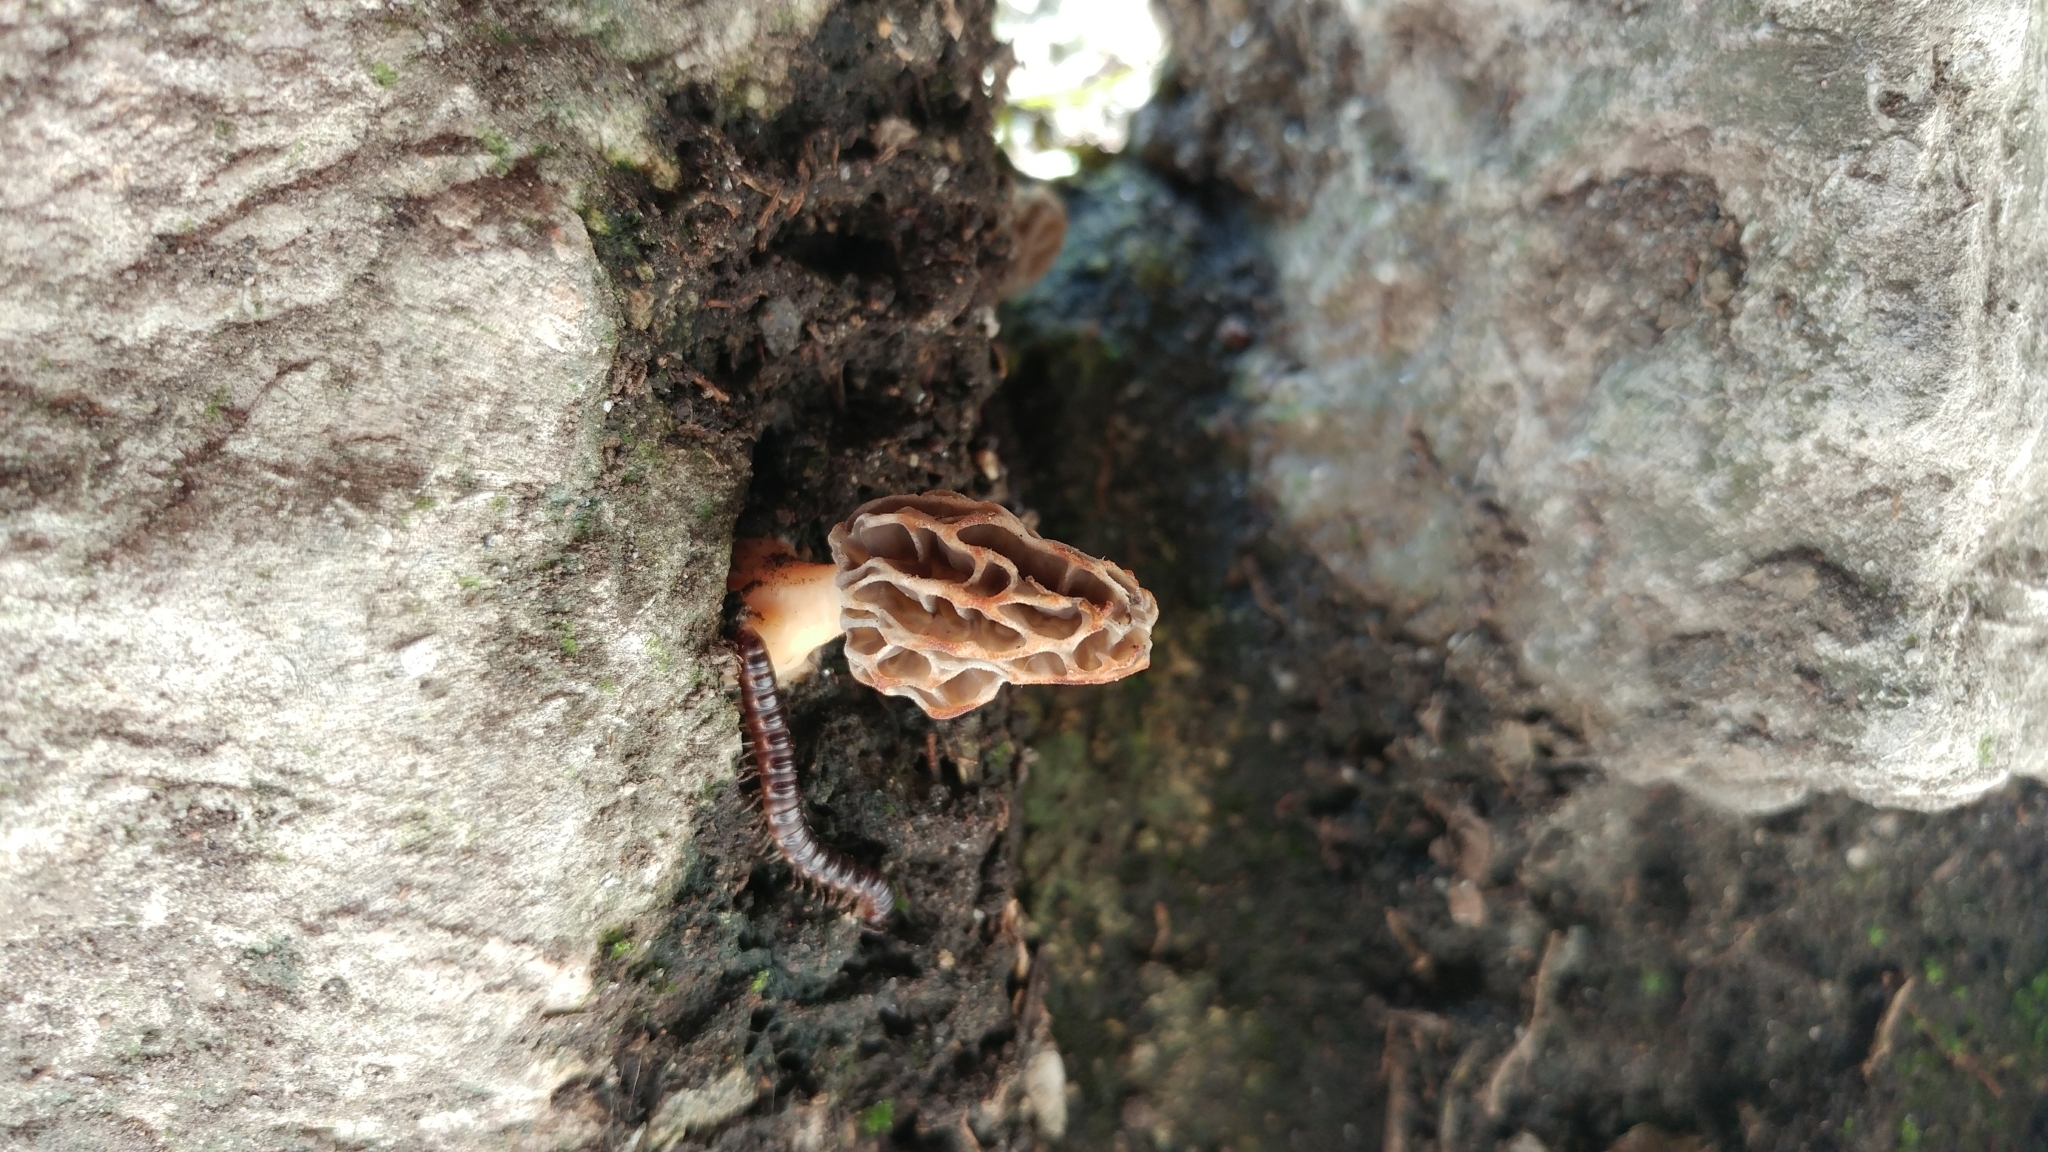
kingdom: Animalia
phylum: Arthropoda
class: Diplopoda
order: Polydesmida
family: Paradoxosomatidae
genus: Oxidus
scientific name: Oxidus gracilis
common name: Greenhouse millipede
